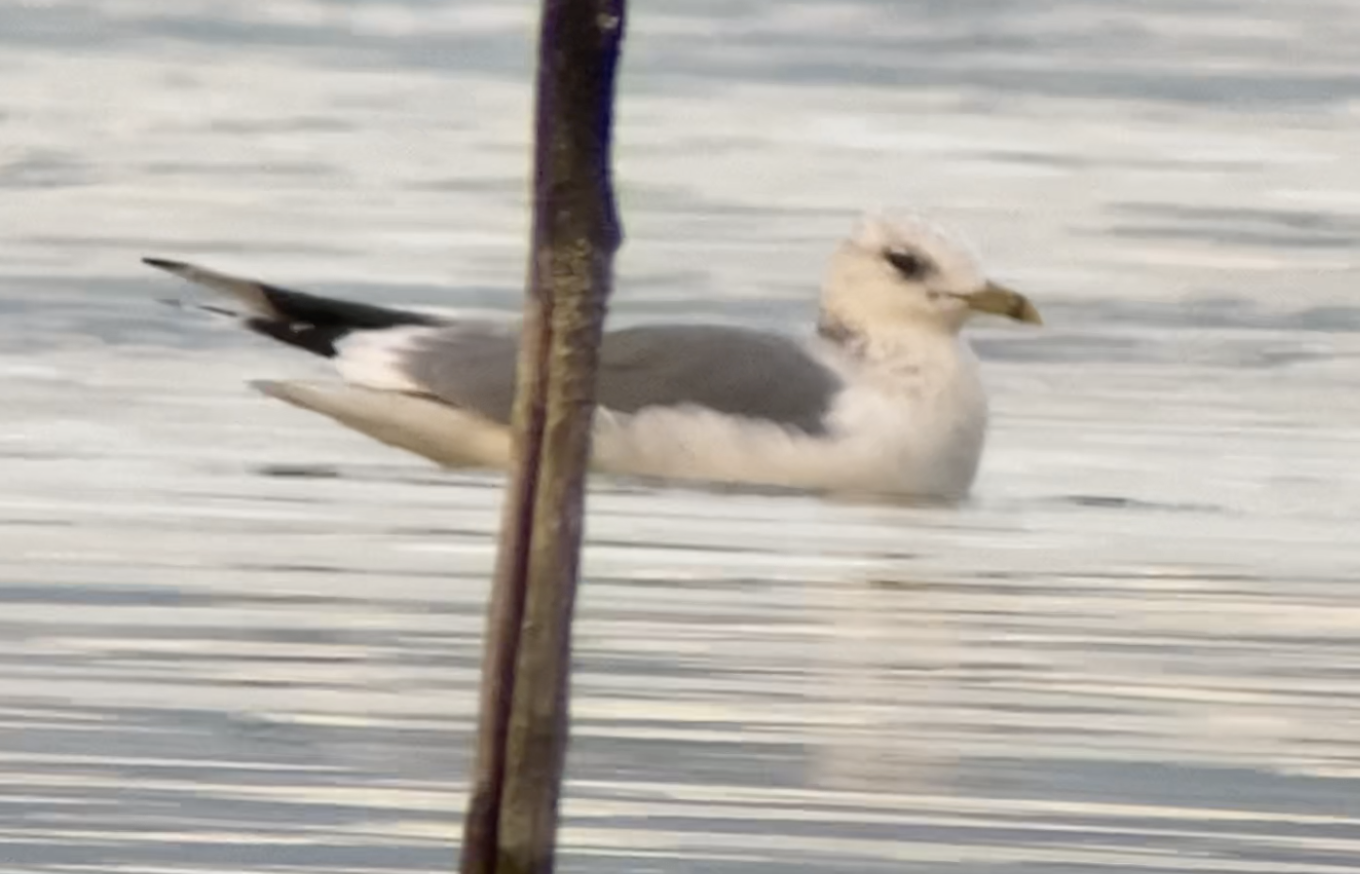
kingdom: Animalia
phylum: Chordata
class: Aves
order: Charadriiformes
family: Laridae
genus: Larus
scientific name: Larus canus
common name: Mew gull
